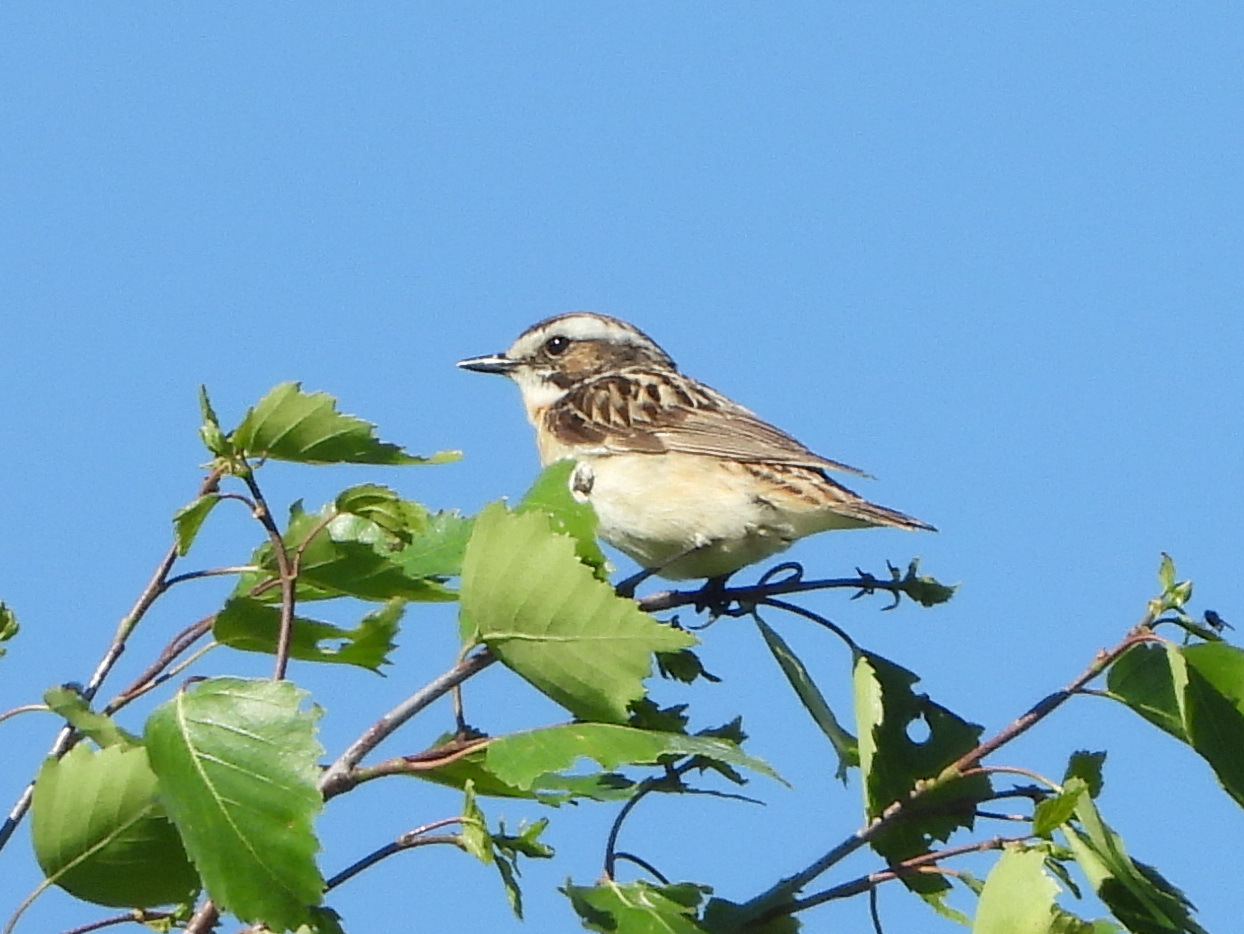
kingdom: Animalia
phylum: Chordata
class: Aves
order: Passeriformes
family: Muscicapidae
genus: Saxicola
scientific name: Saxicola rubetra
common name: Whinchat
